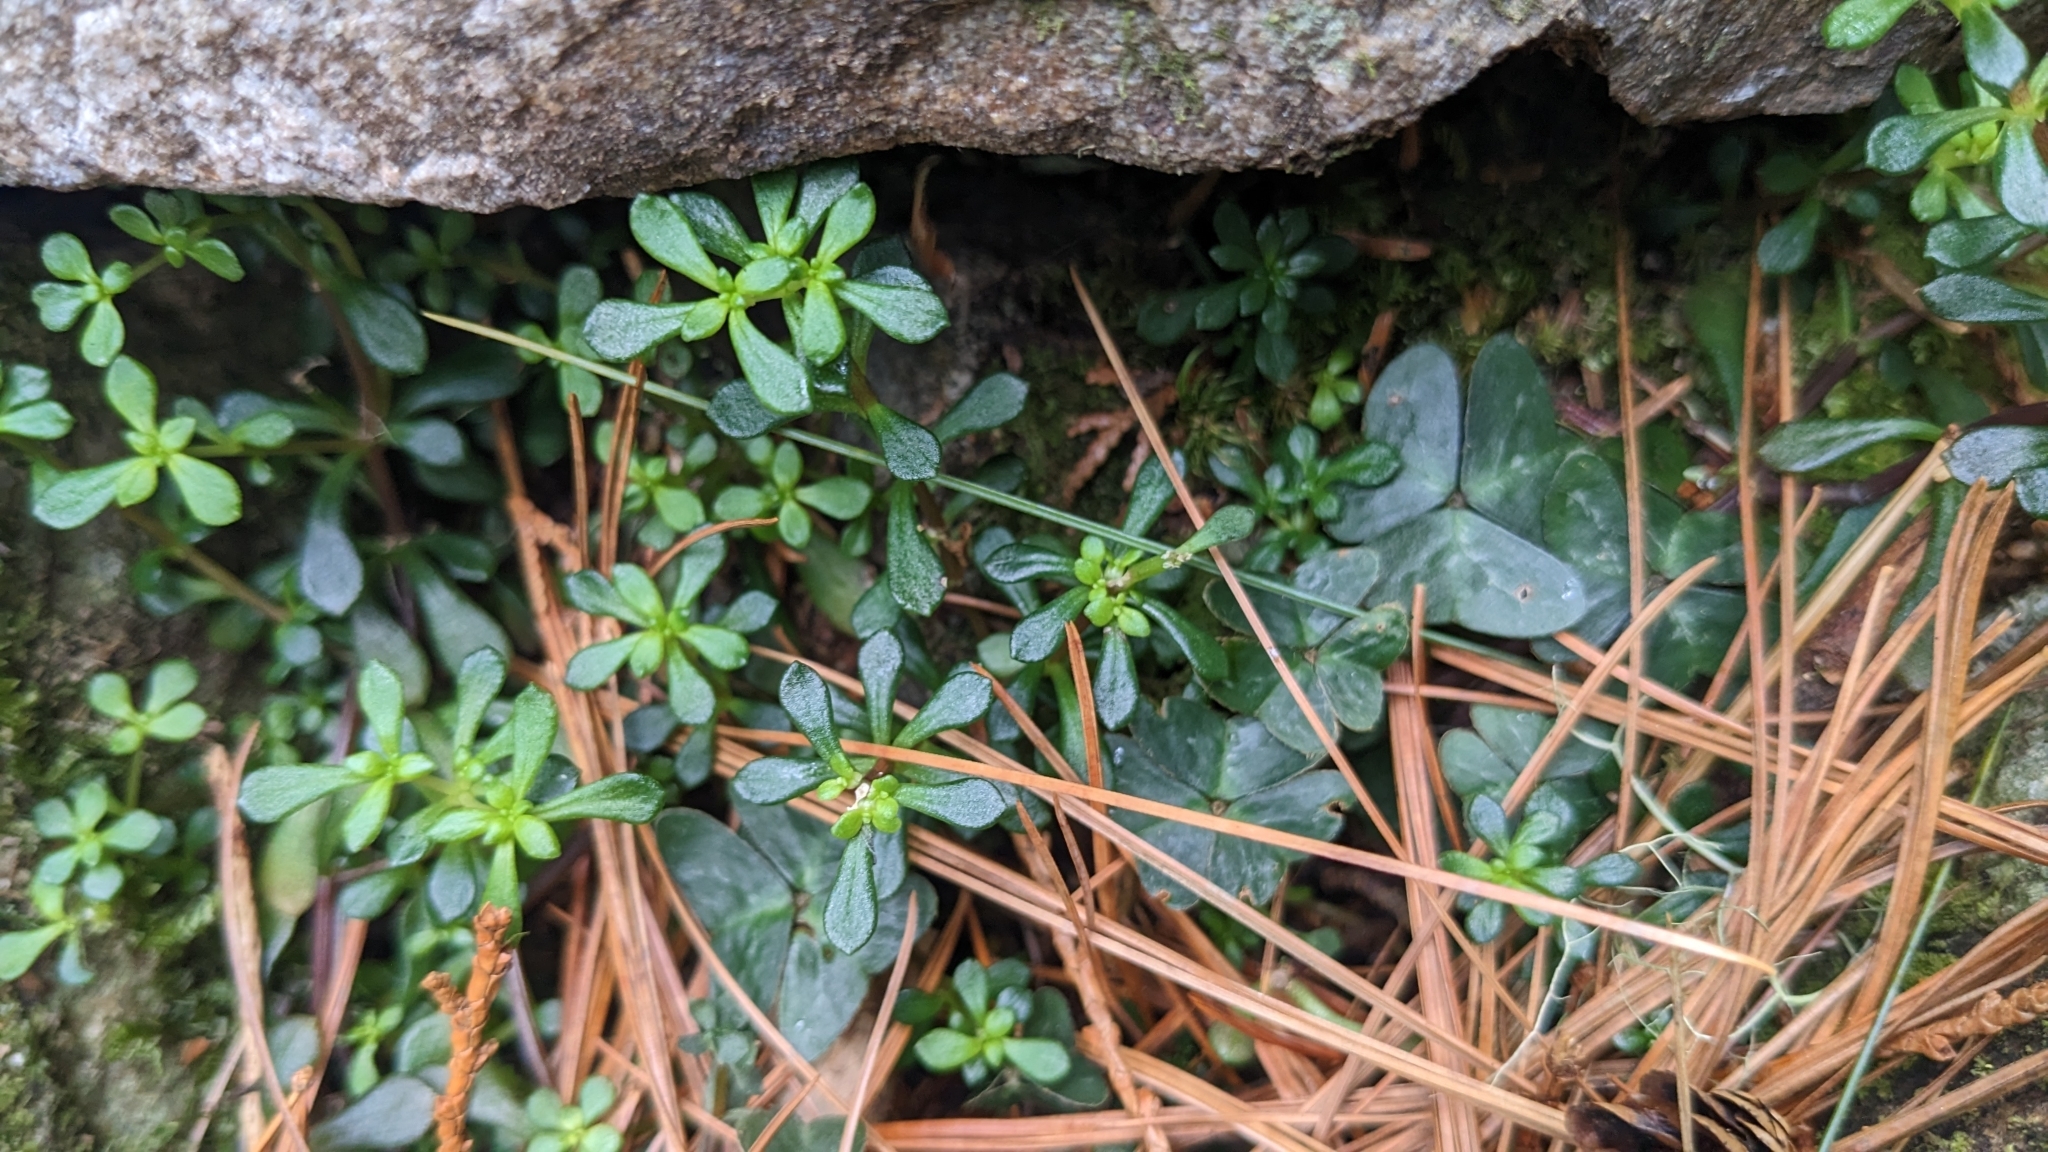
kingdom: Plantae
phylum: Tracheophyta
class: Magnoliopsida
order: Saxifragales
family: Crassulaceae
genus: Sedum
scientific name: Sedum actinocarpum
